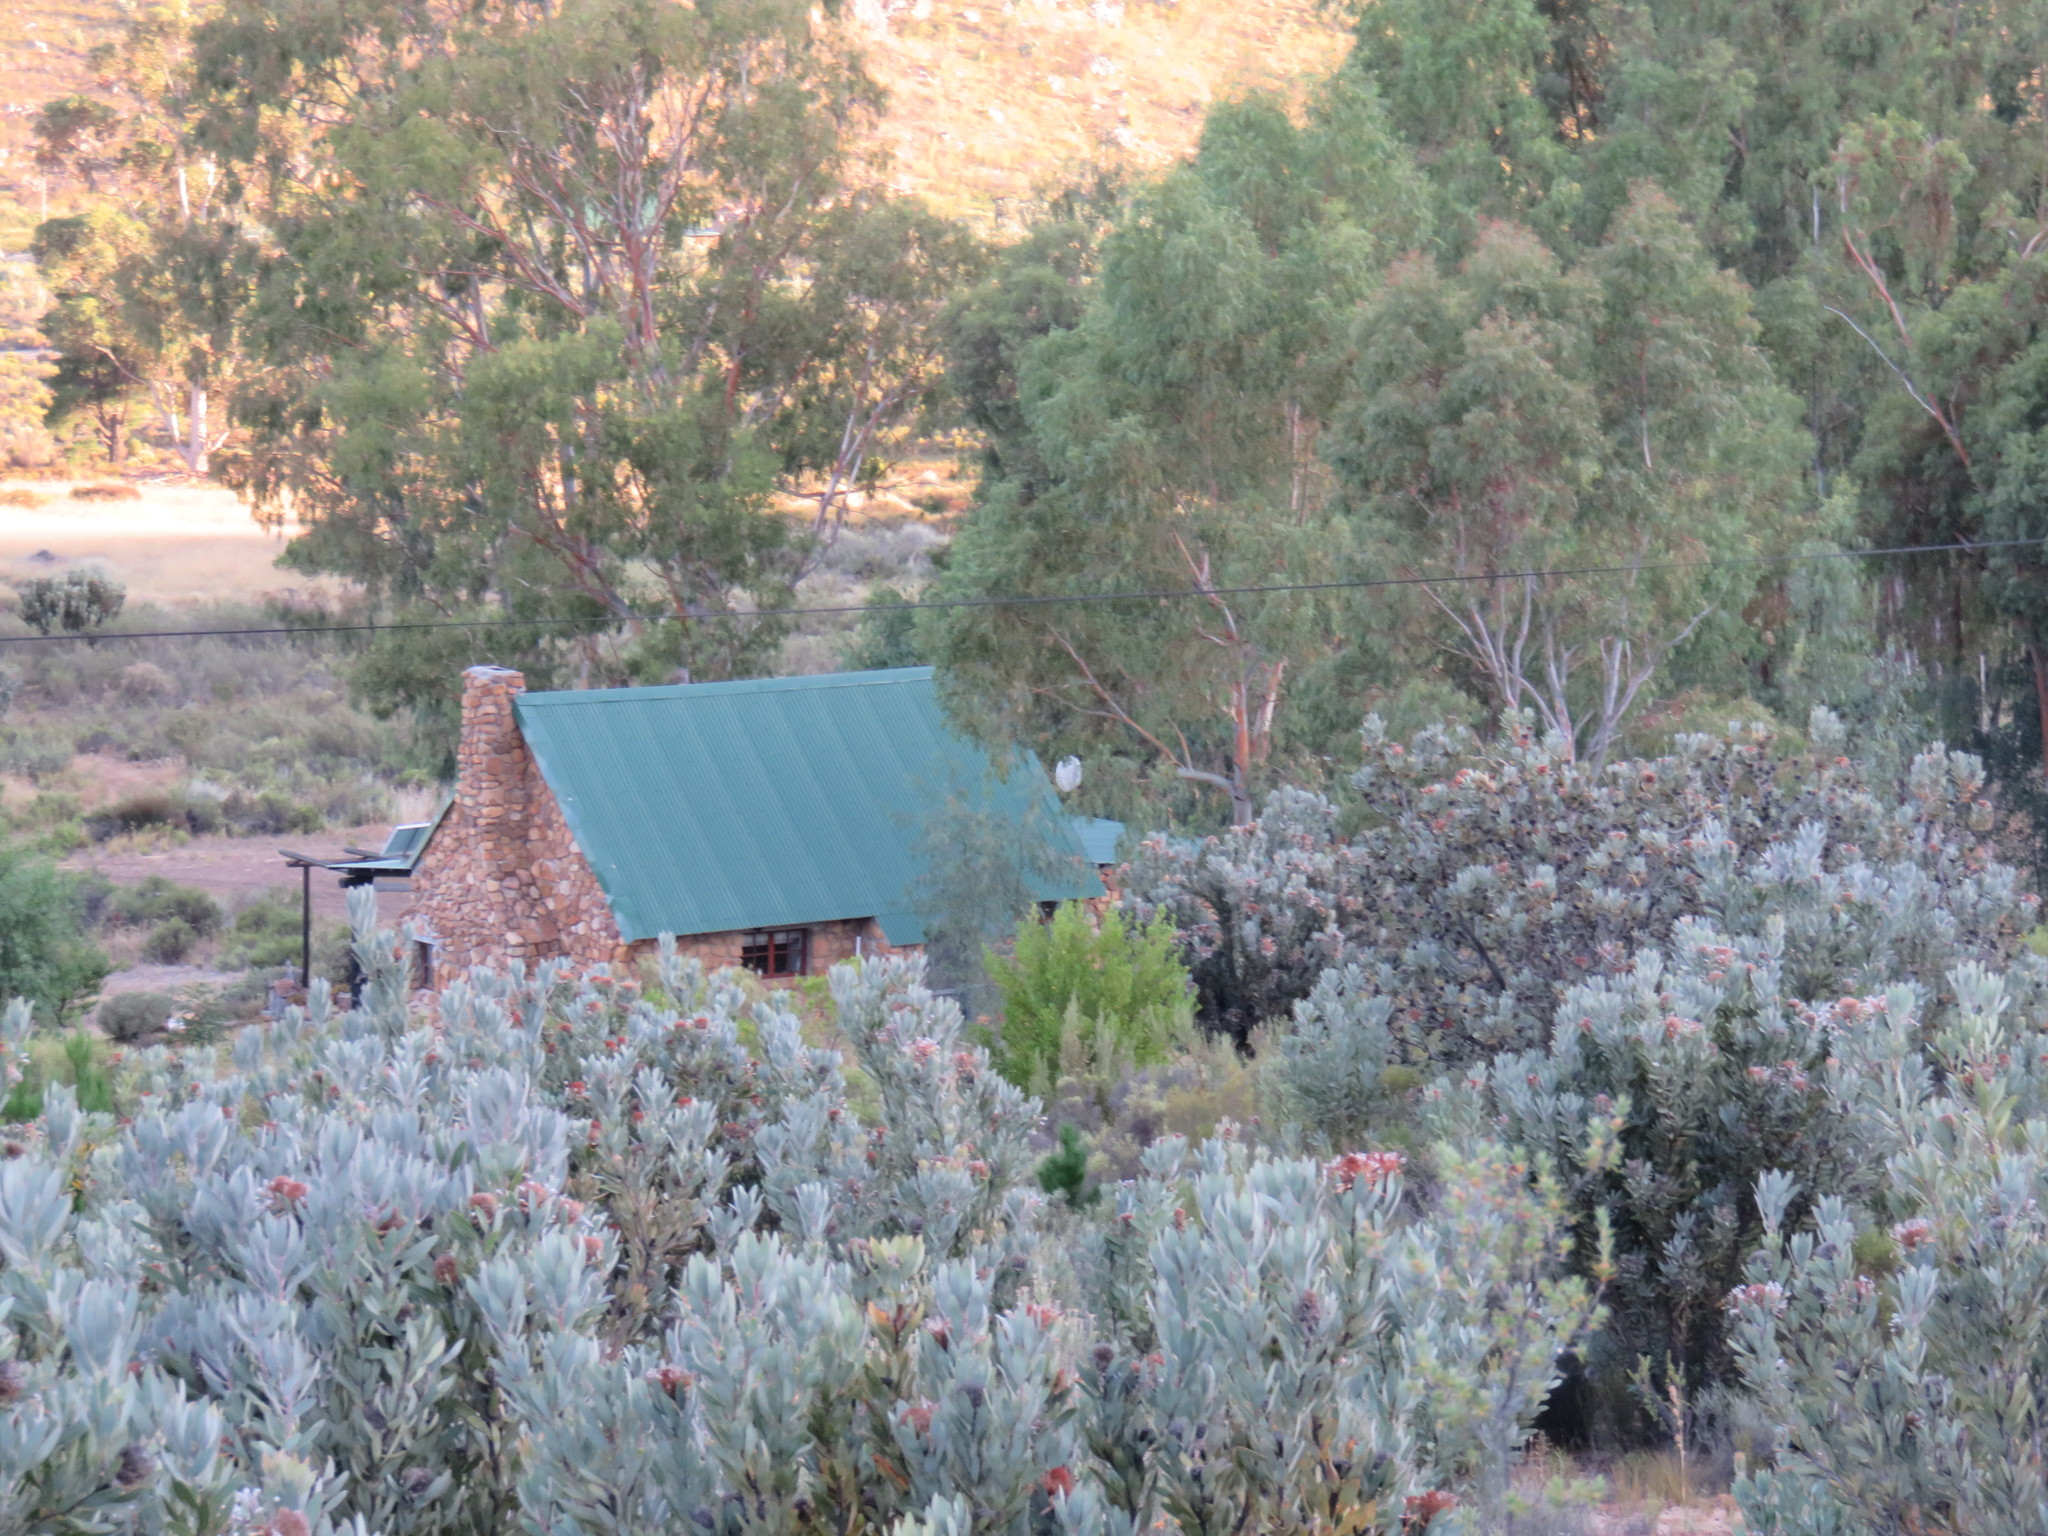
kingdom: Plantae
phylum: Tracheophyta
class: Magnoliopsida
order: Proteales
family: Proteaceae
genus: Protea
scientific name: Protea laurifolia
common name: Grey-leaf sugarbsh
